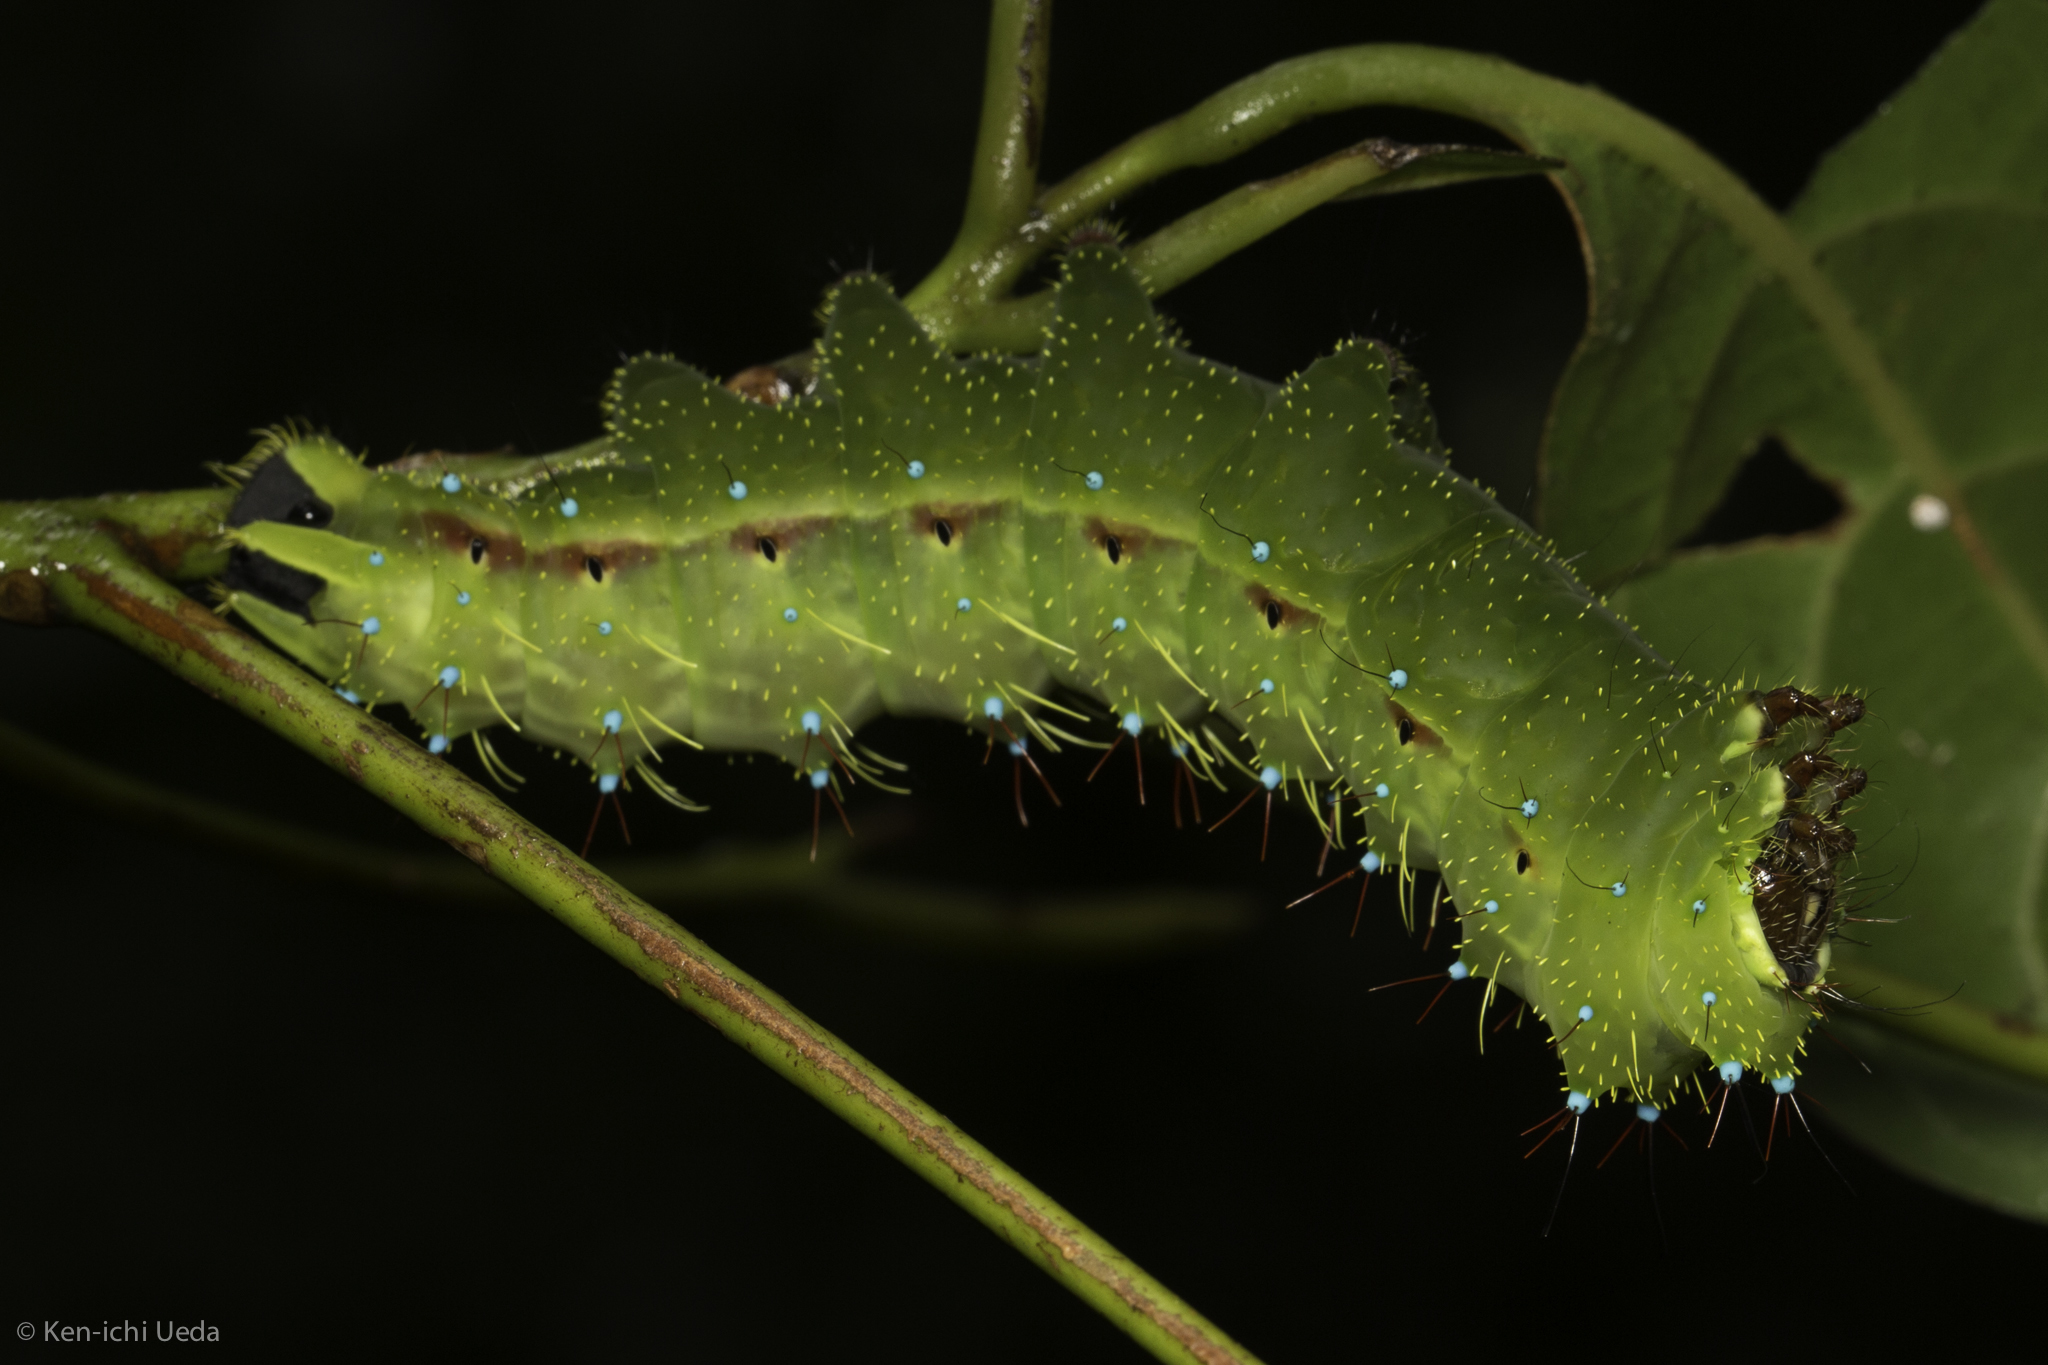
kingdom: Animalia
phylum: Arthropoda
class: Insecta
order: Lepidoptera
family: Saturniidae
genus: Copaxa
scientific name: Copaxa rufinans
